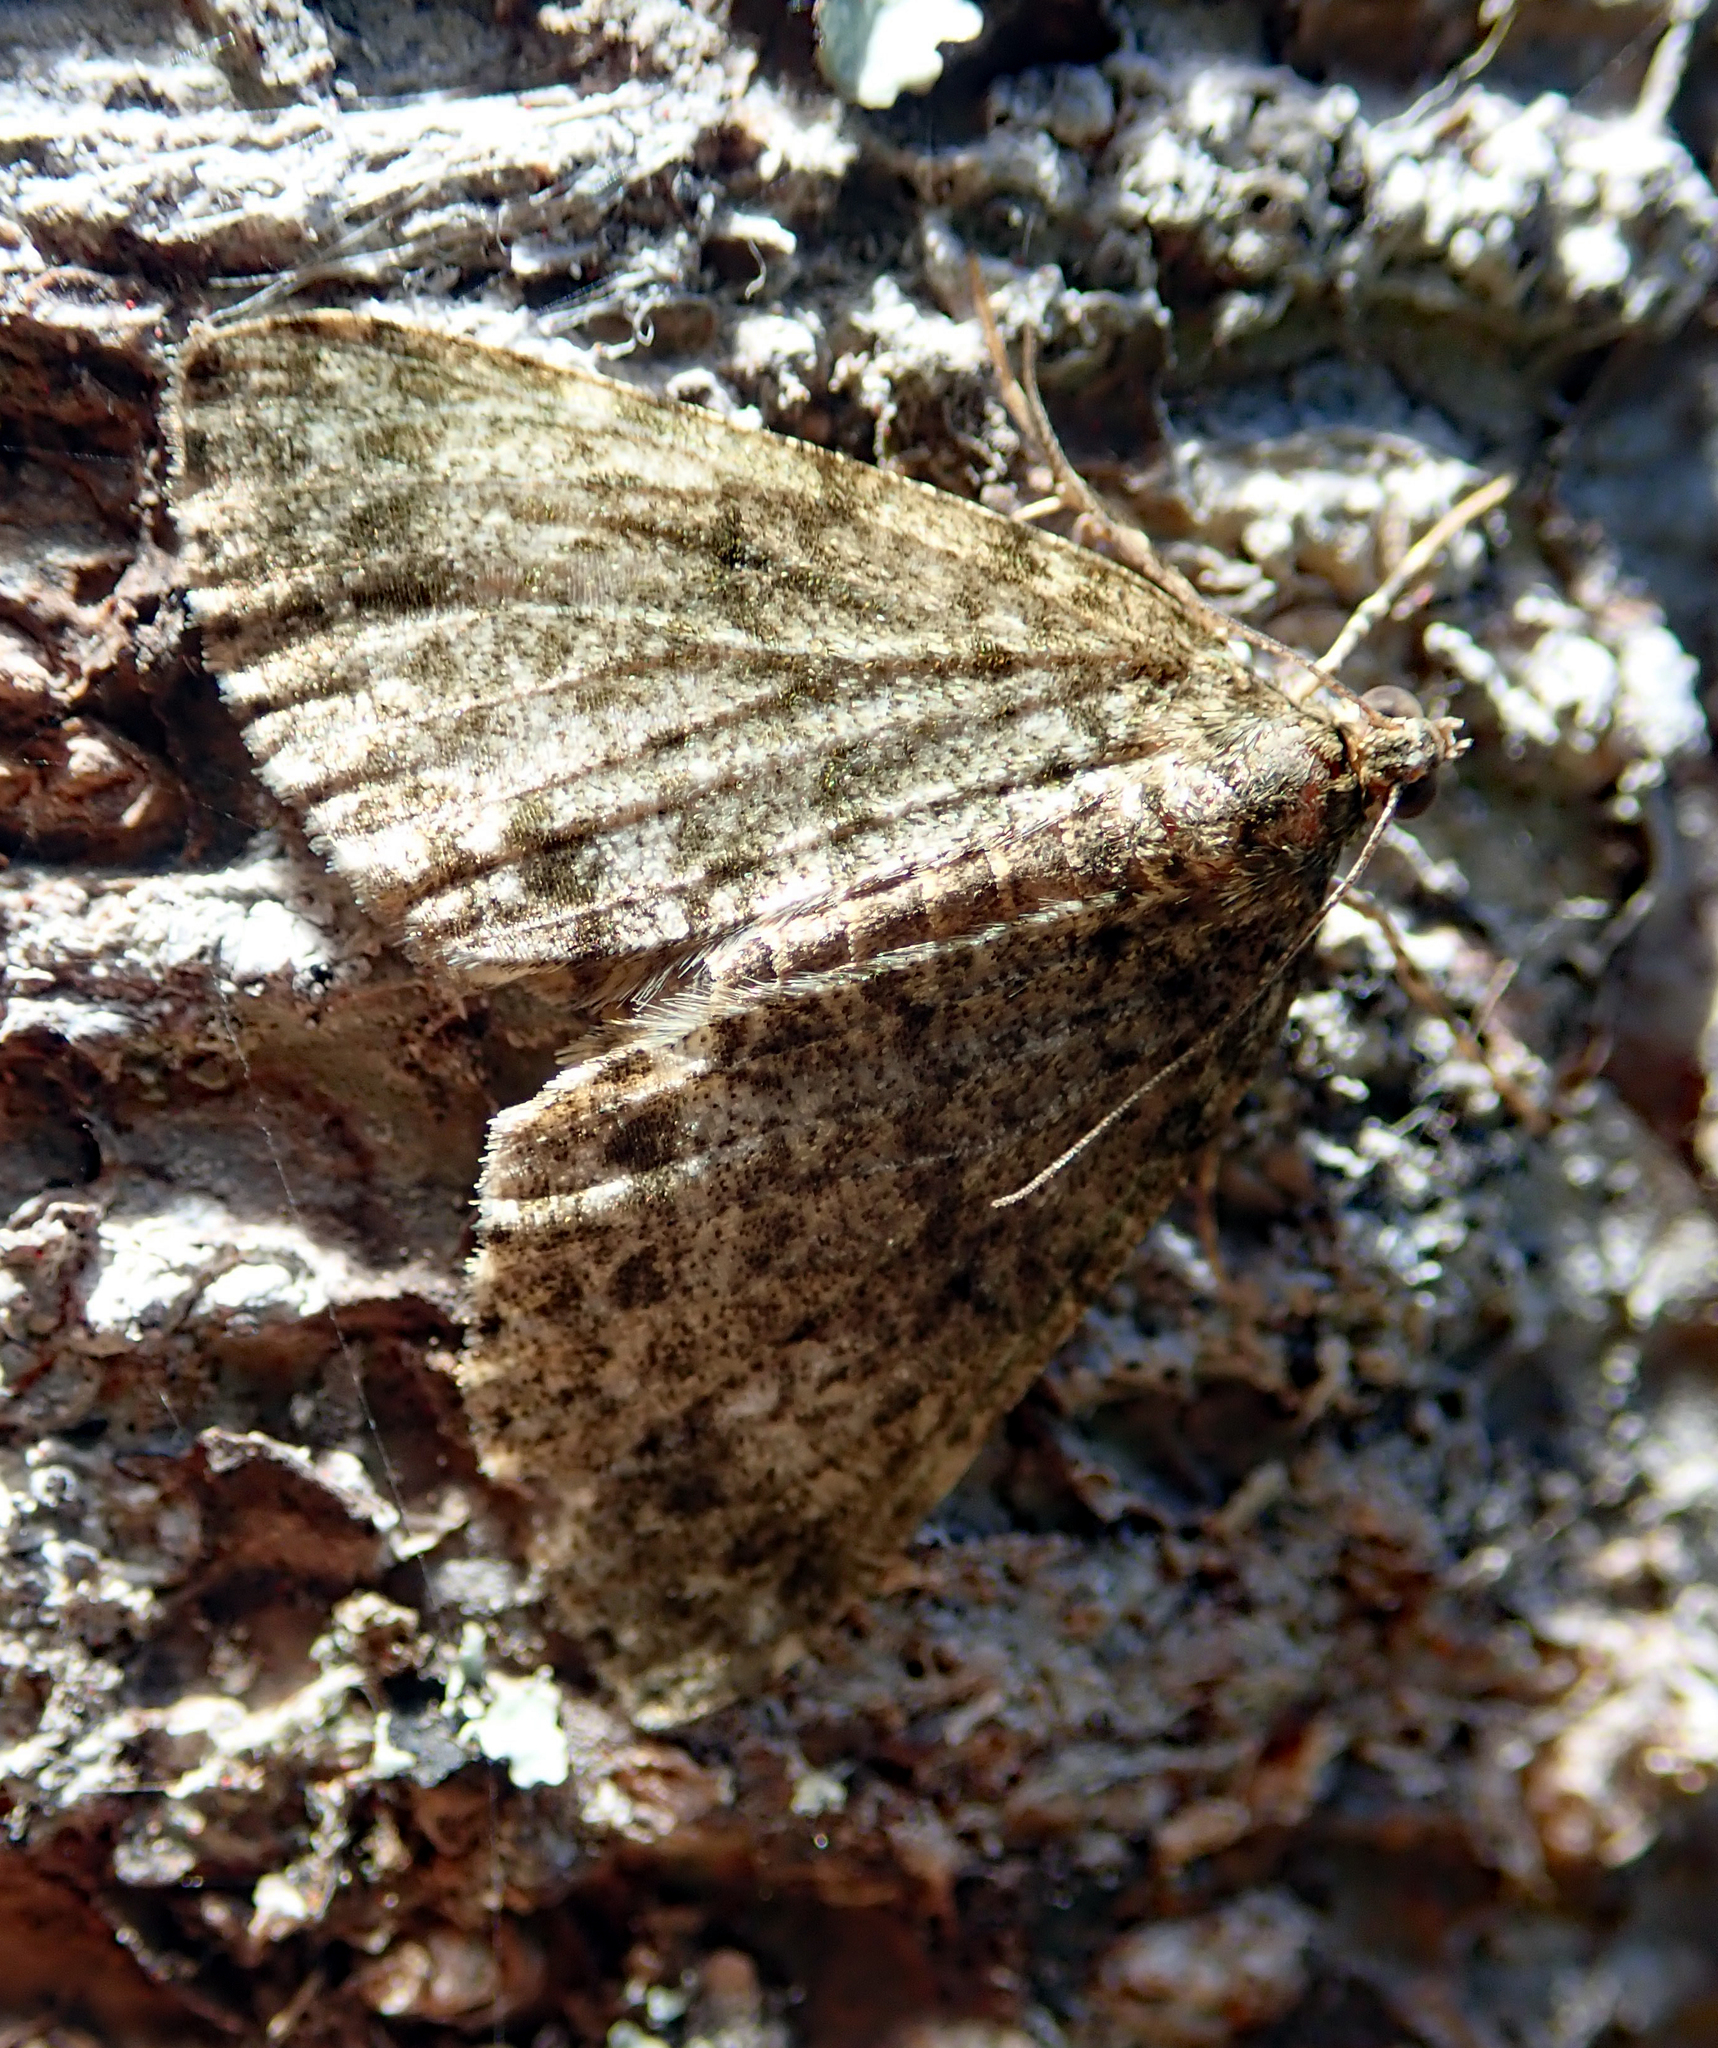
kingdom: Animalia
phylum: Arthropoda
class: Insecta
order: Lepidoptera
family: Geometridae
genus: Pseudocoremia
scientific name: Pseudocoremia indistincta
